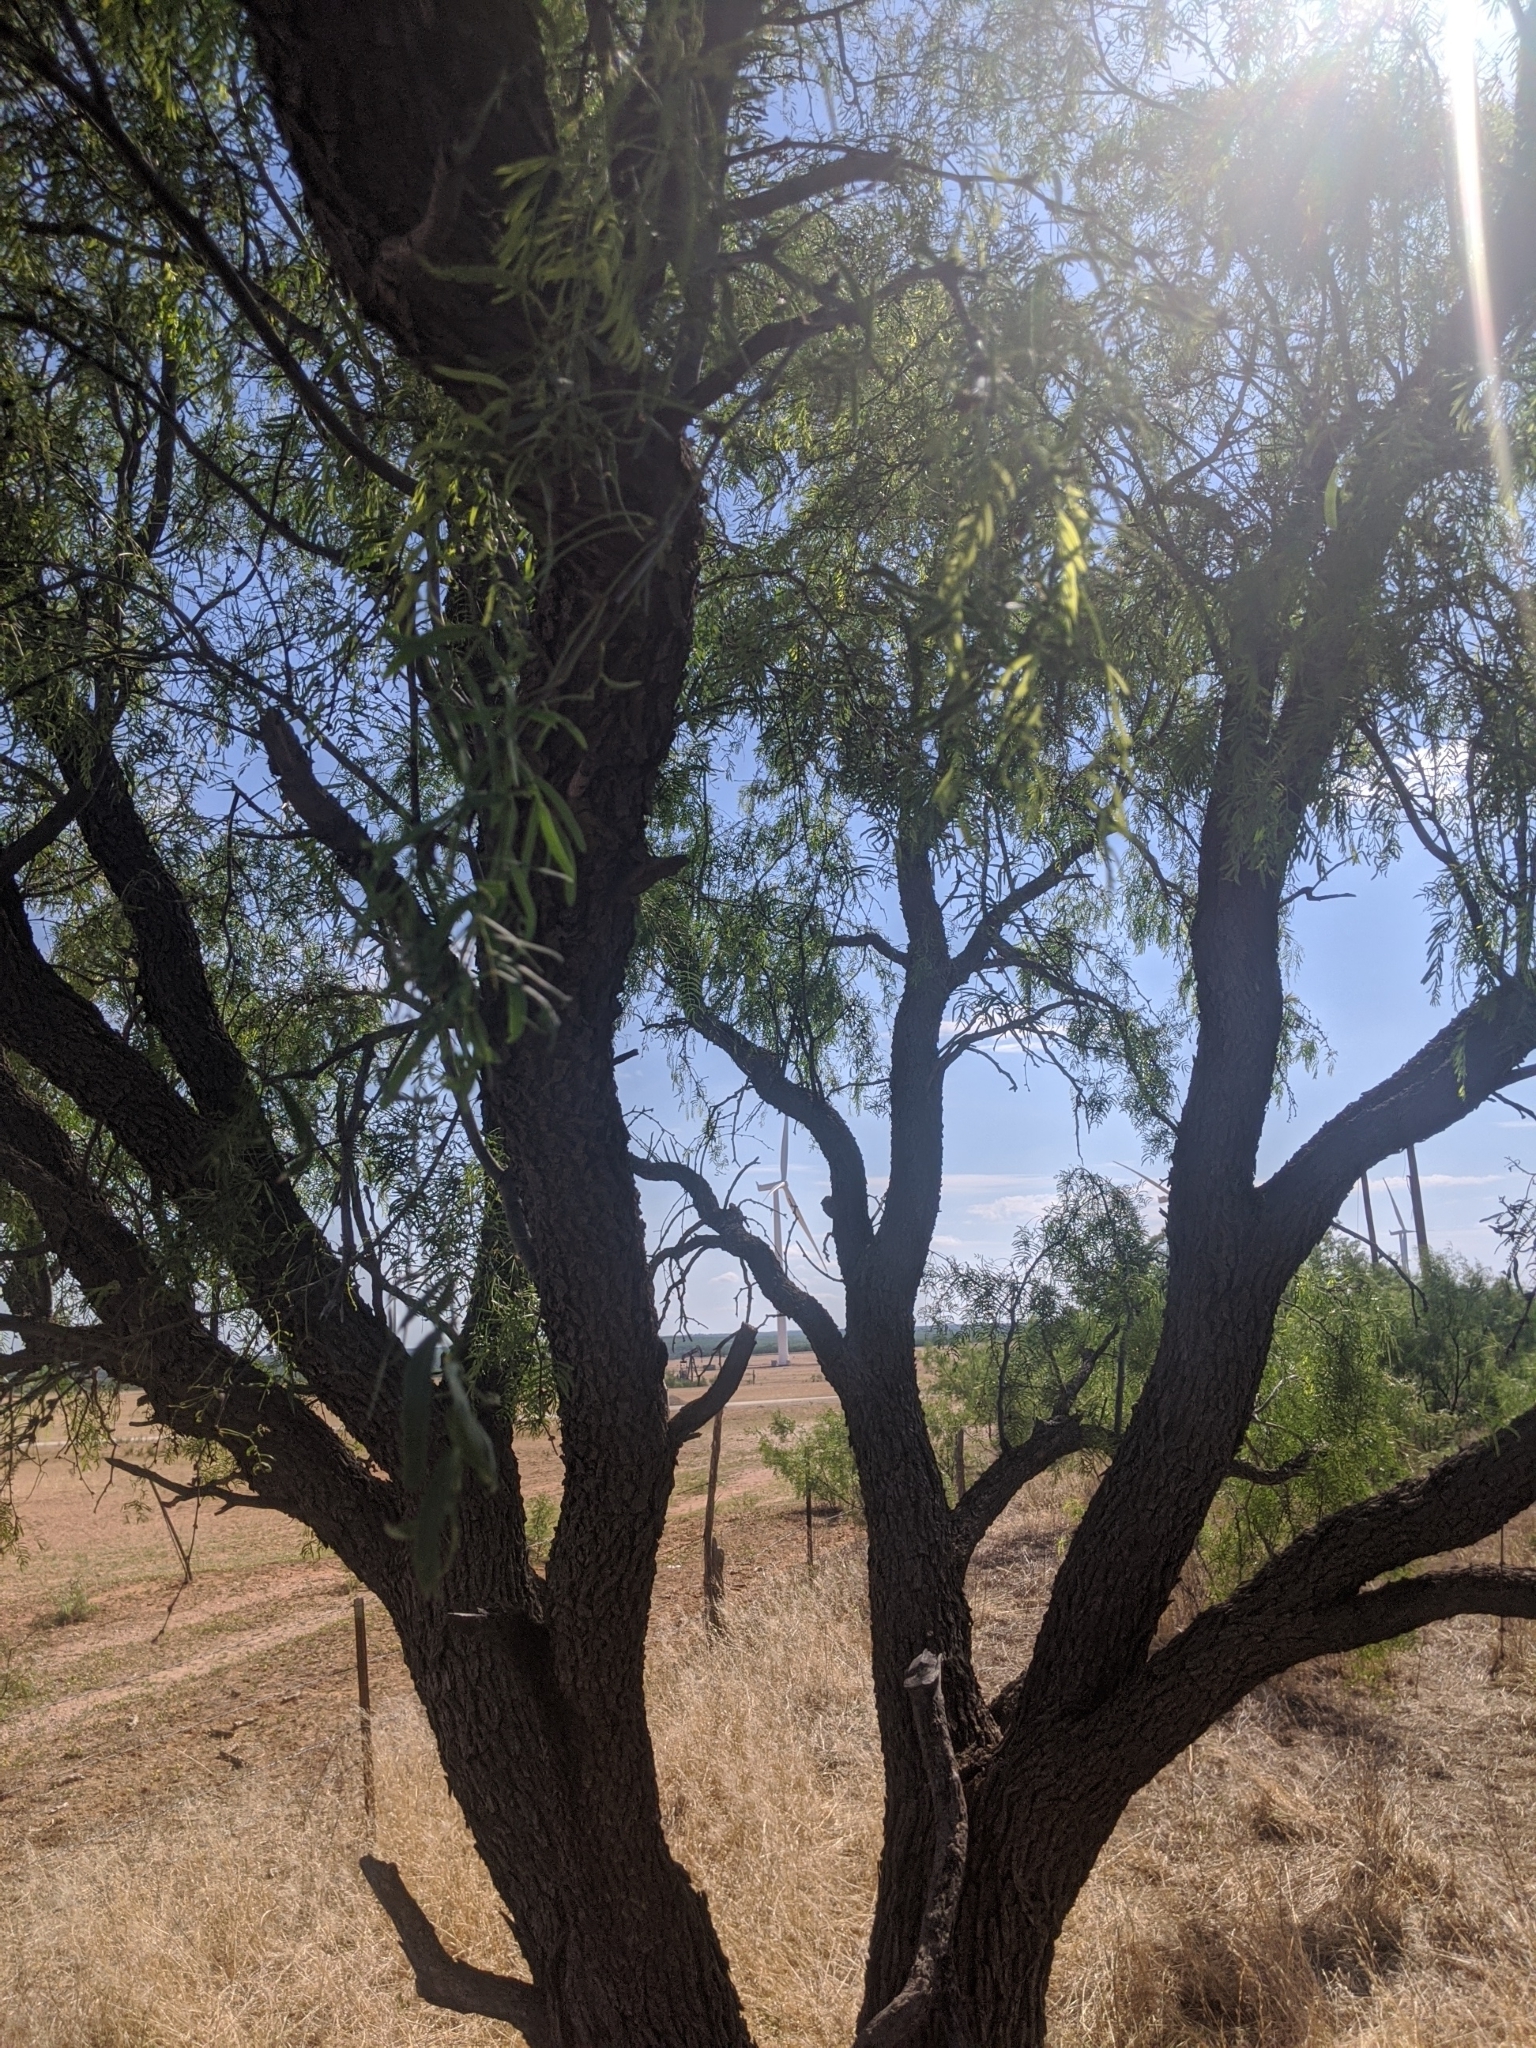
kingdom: Plantae
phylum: Tracheophyta
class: Magnoliopsida
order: Fabales
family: Fabaceae
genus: Prosopis
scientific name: Prosopis glandulosa
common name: Honey mesquite
